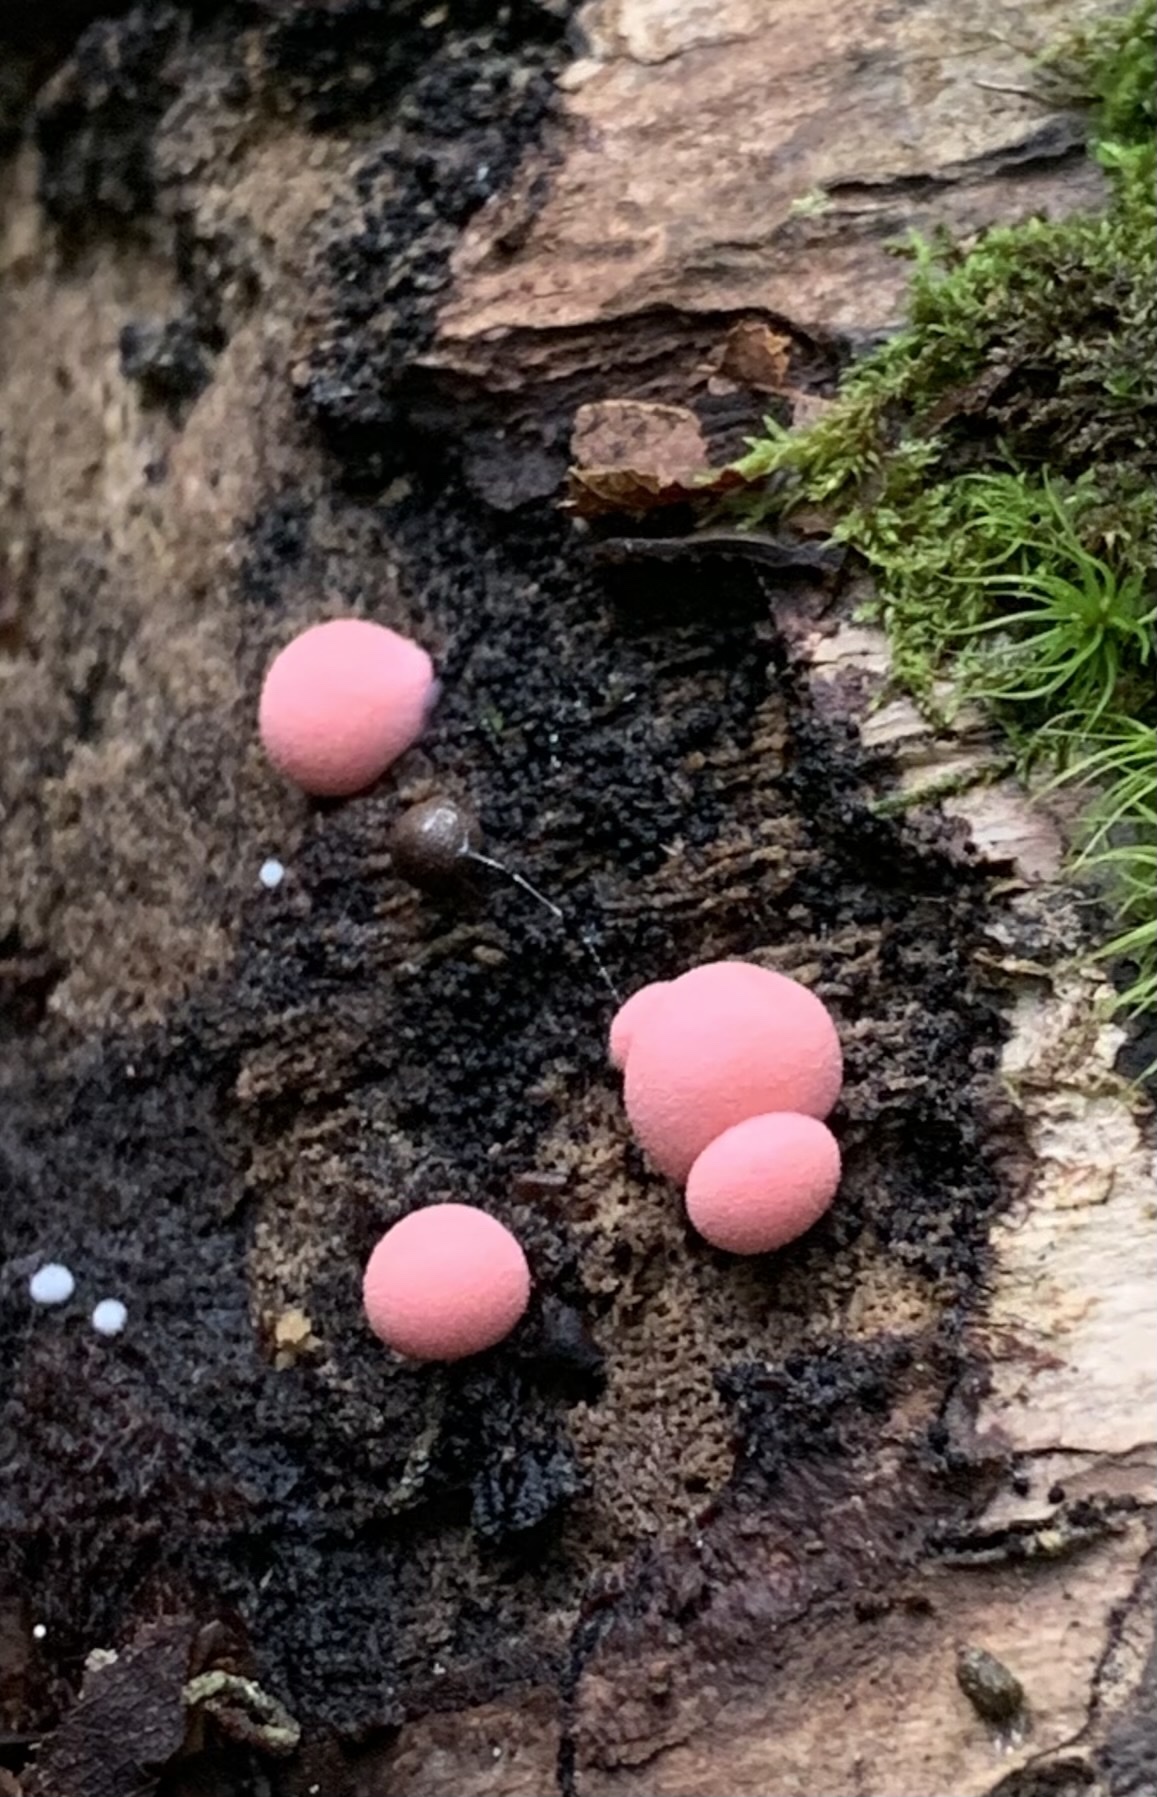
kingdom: Protozoa
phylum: Mycetozoa
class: Myxomycetes
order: Cribrariales
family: Tubiferaceae
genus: Lycogala
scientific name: Lycogala epidendrum
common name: Wolf's milk
